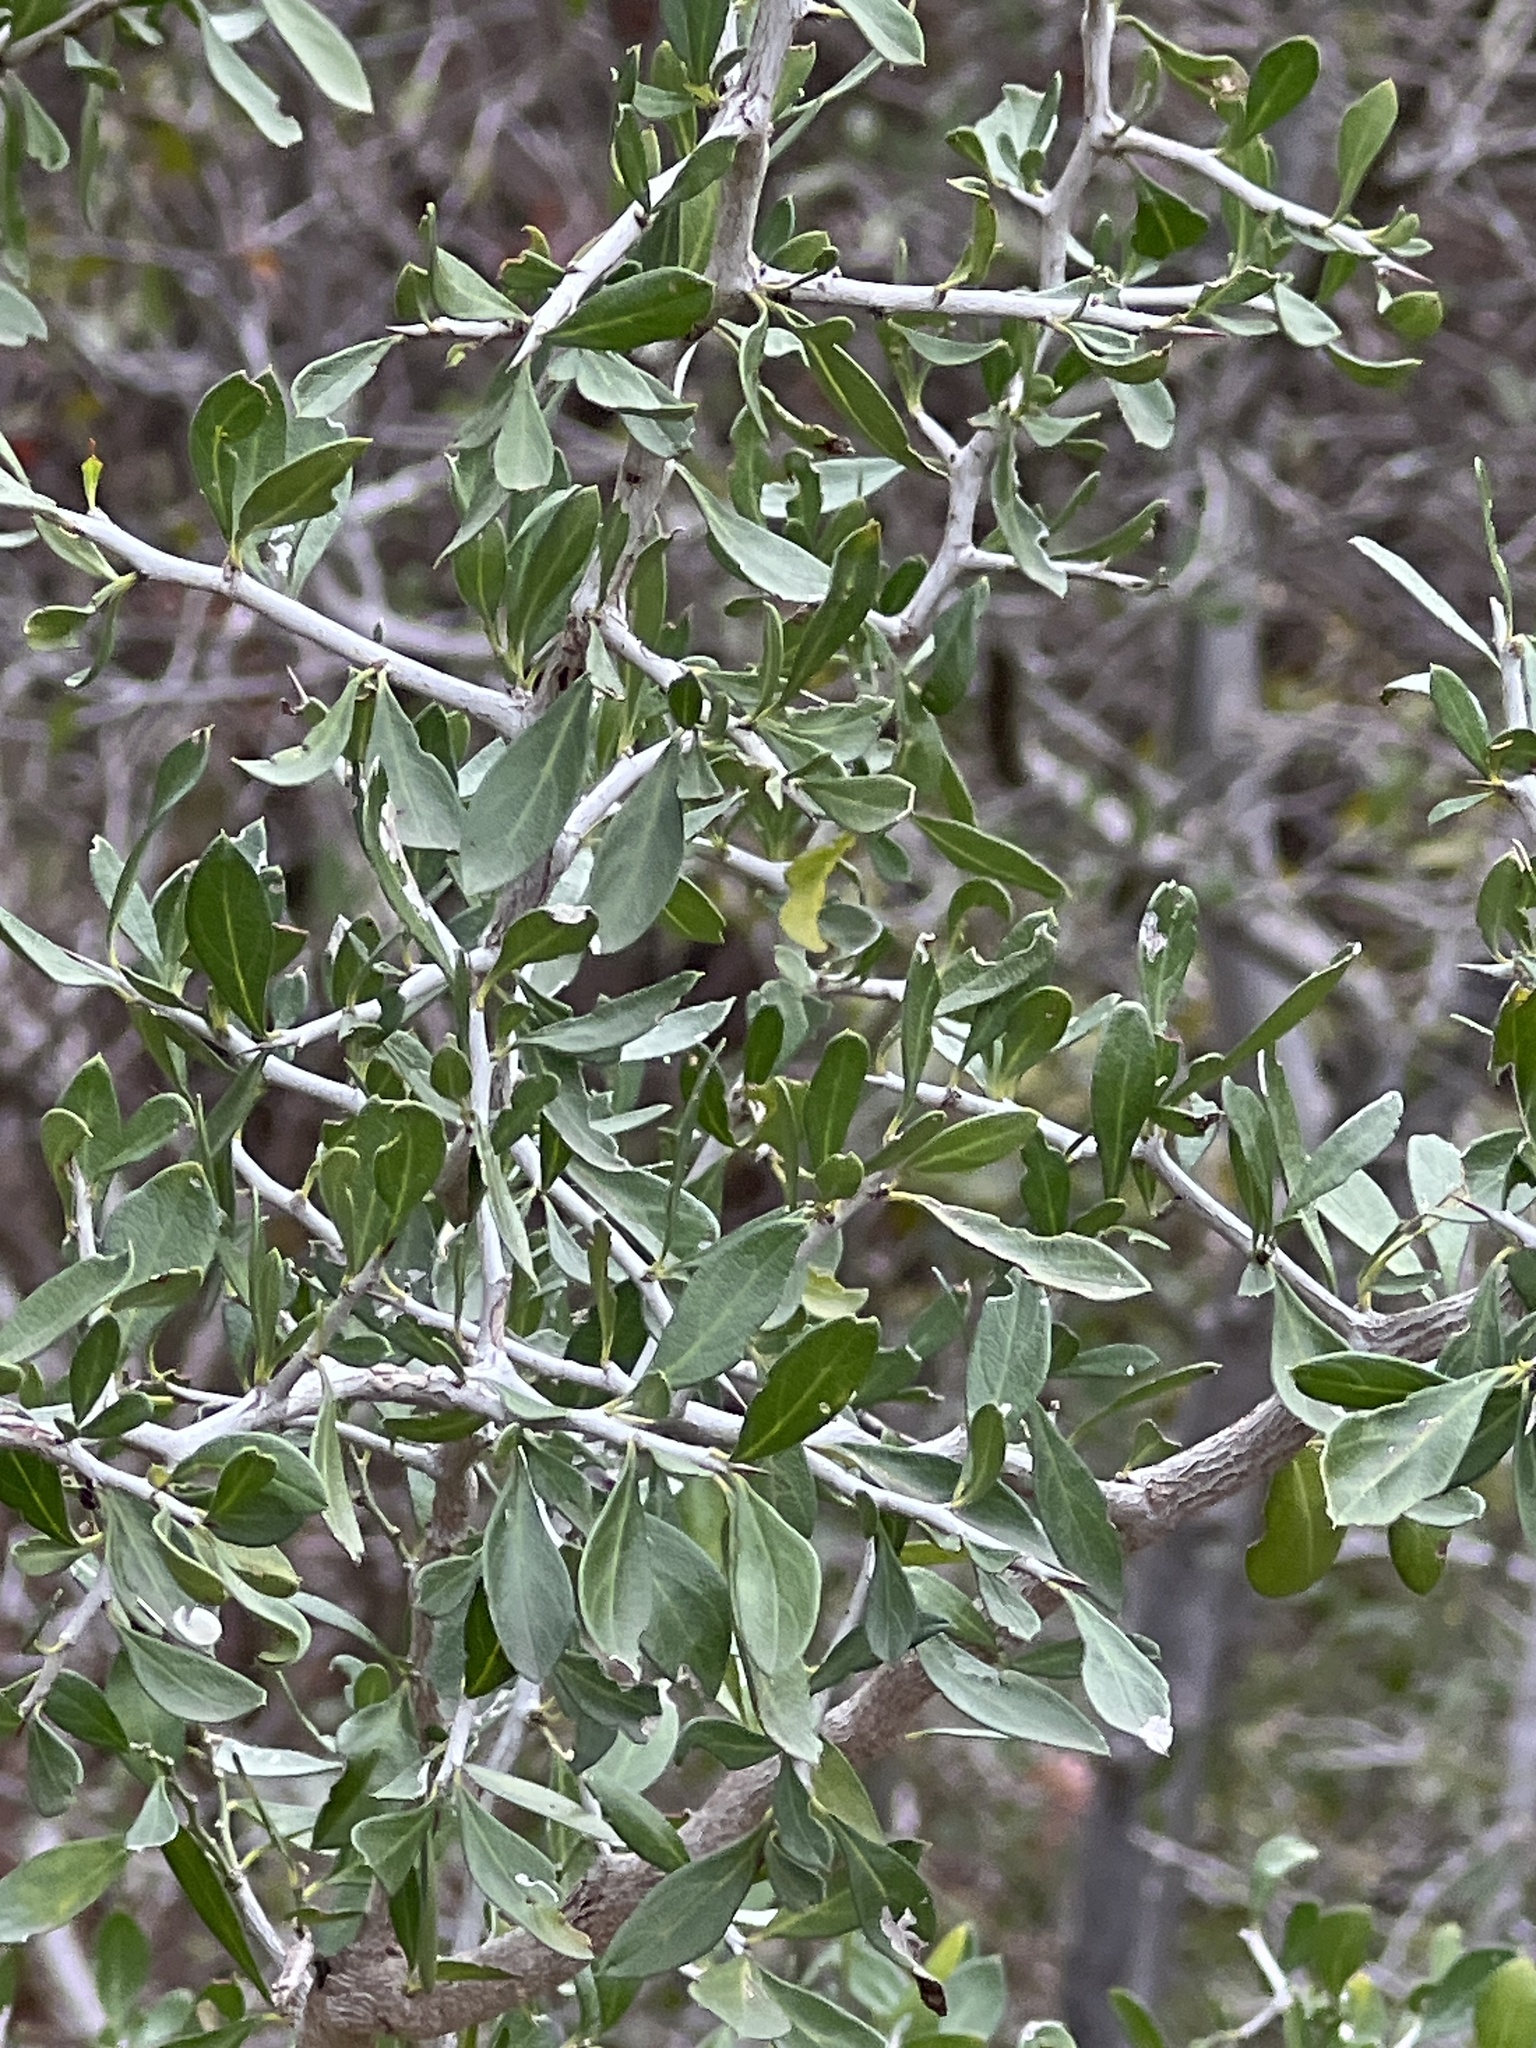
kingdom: Plantae
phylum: Tracheophyta
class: Magnoliopsida
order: Rosales
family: Rhamnaceae
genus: Condalia
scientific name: Condalia hookeri
